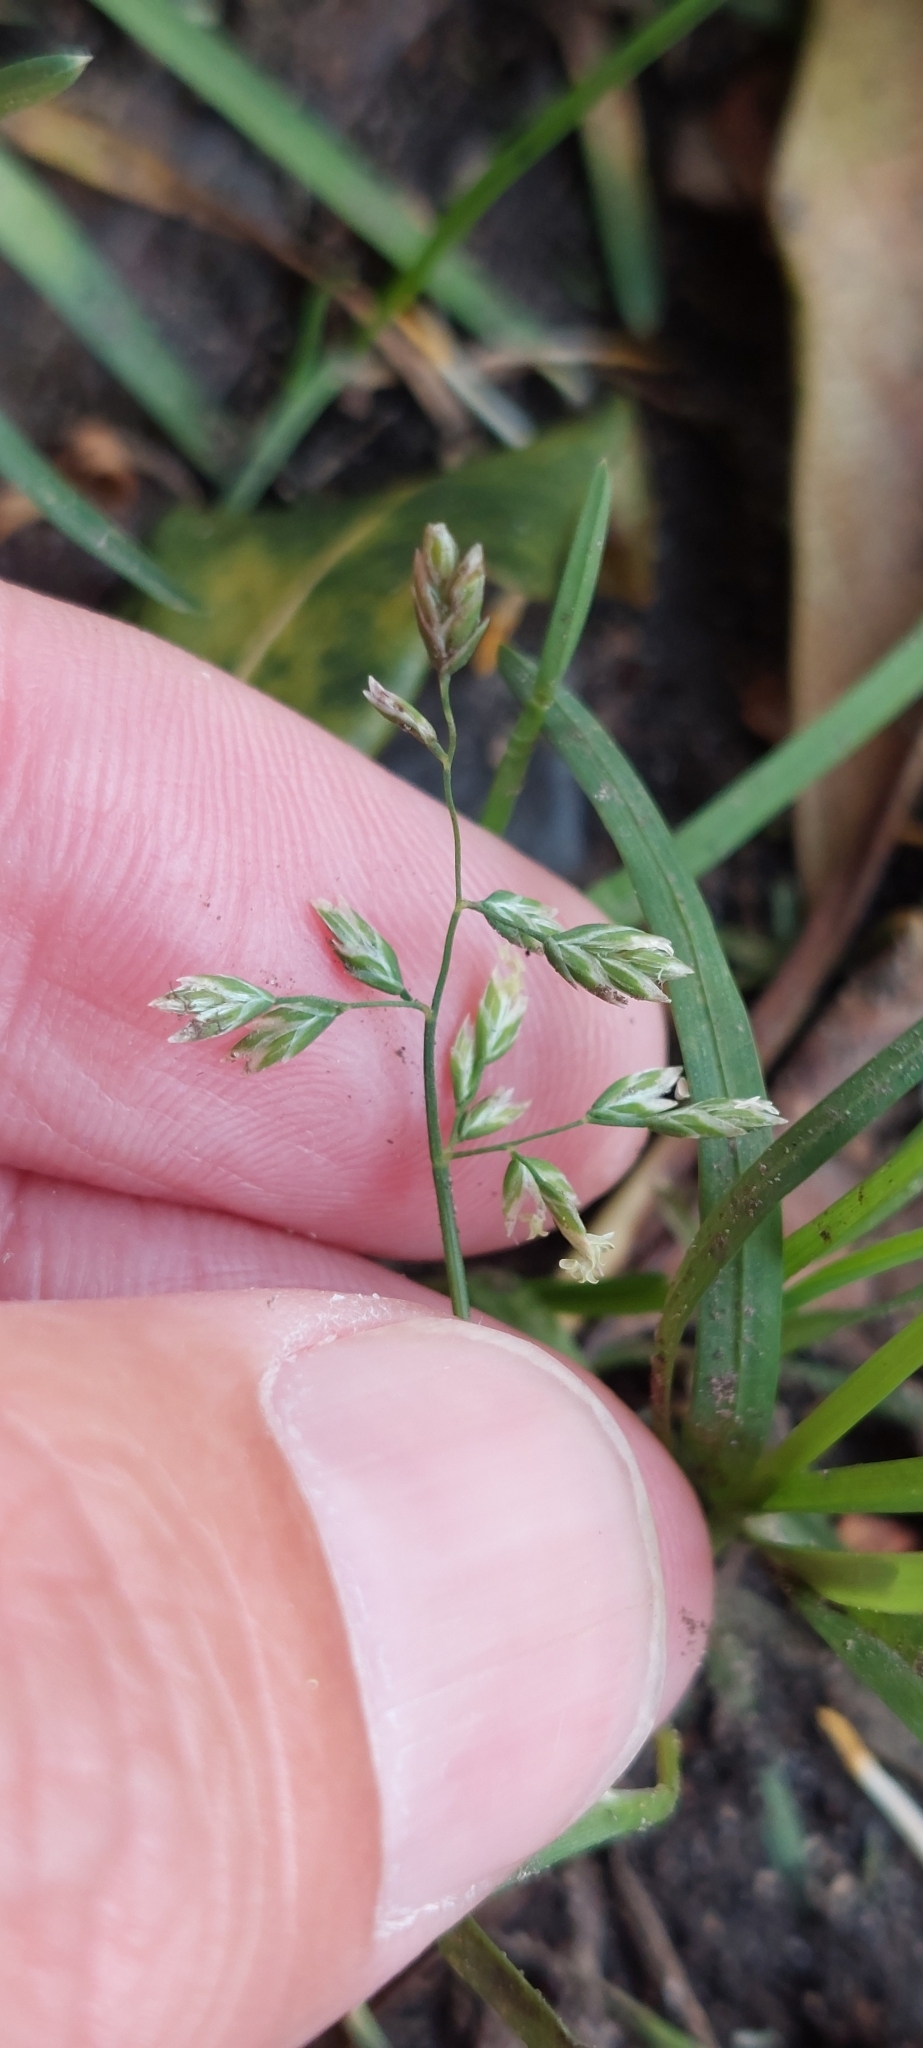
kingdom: Plantae
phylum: Tracheophyta
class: Liliopsida
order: Poales
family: Poaceae
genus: Poa
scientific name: Poa annua
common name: Annual bluegrass
